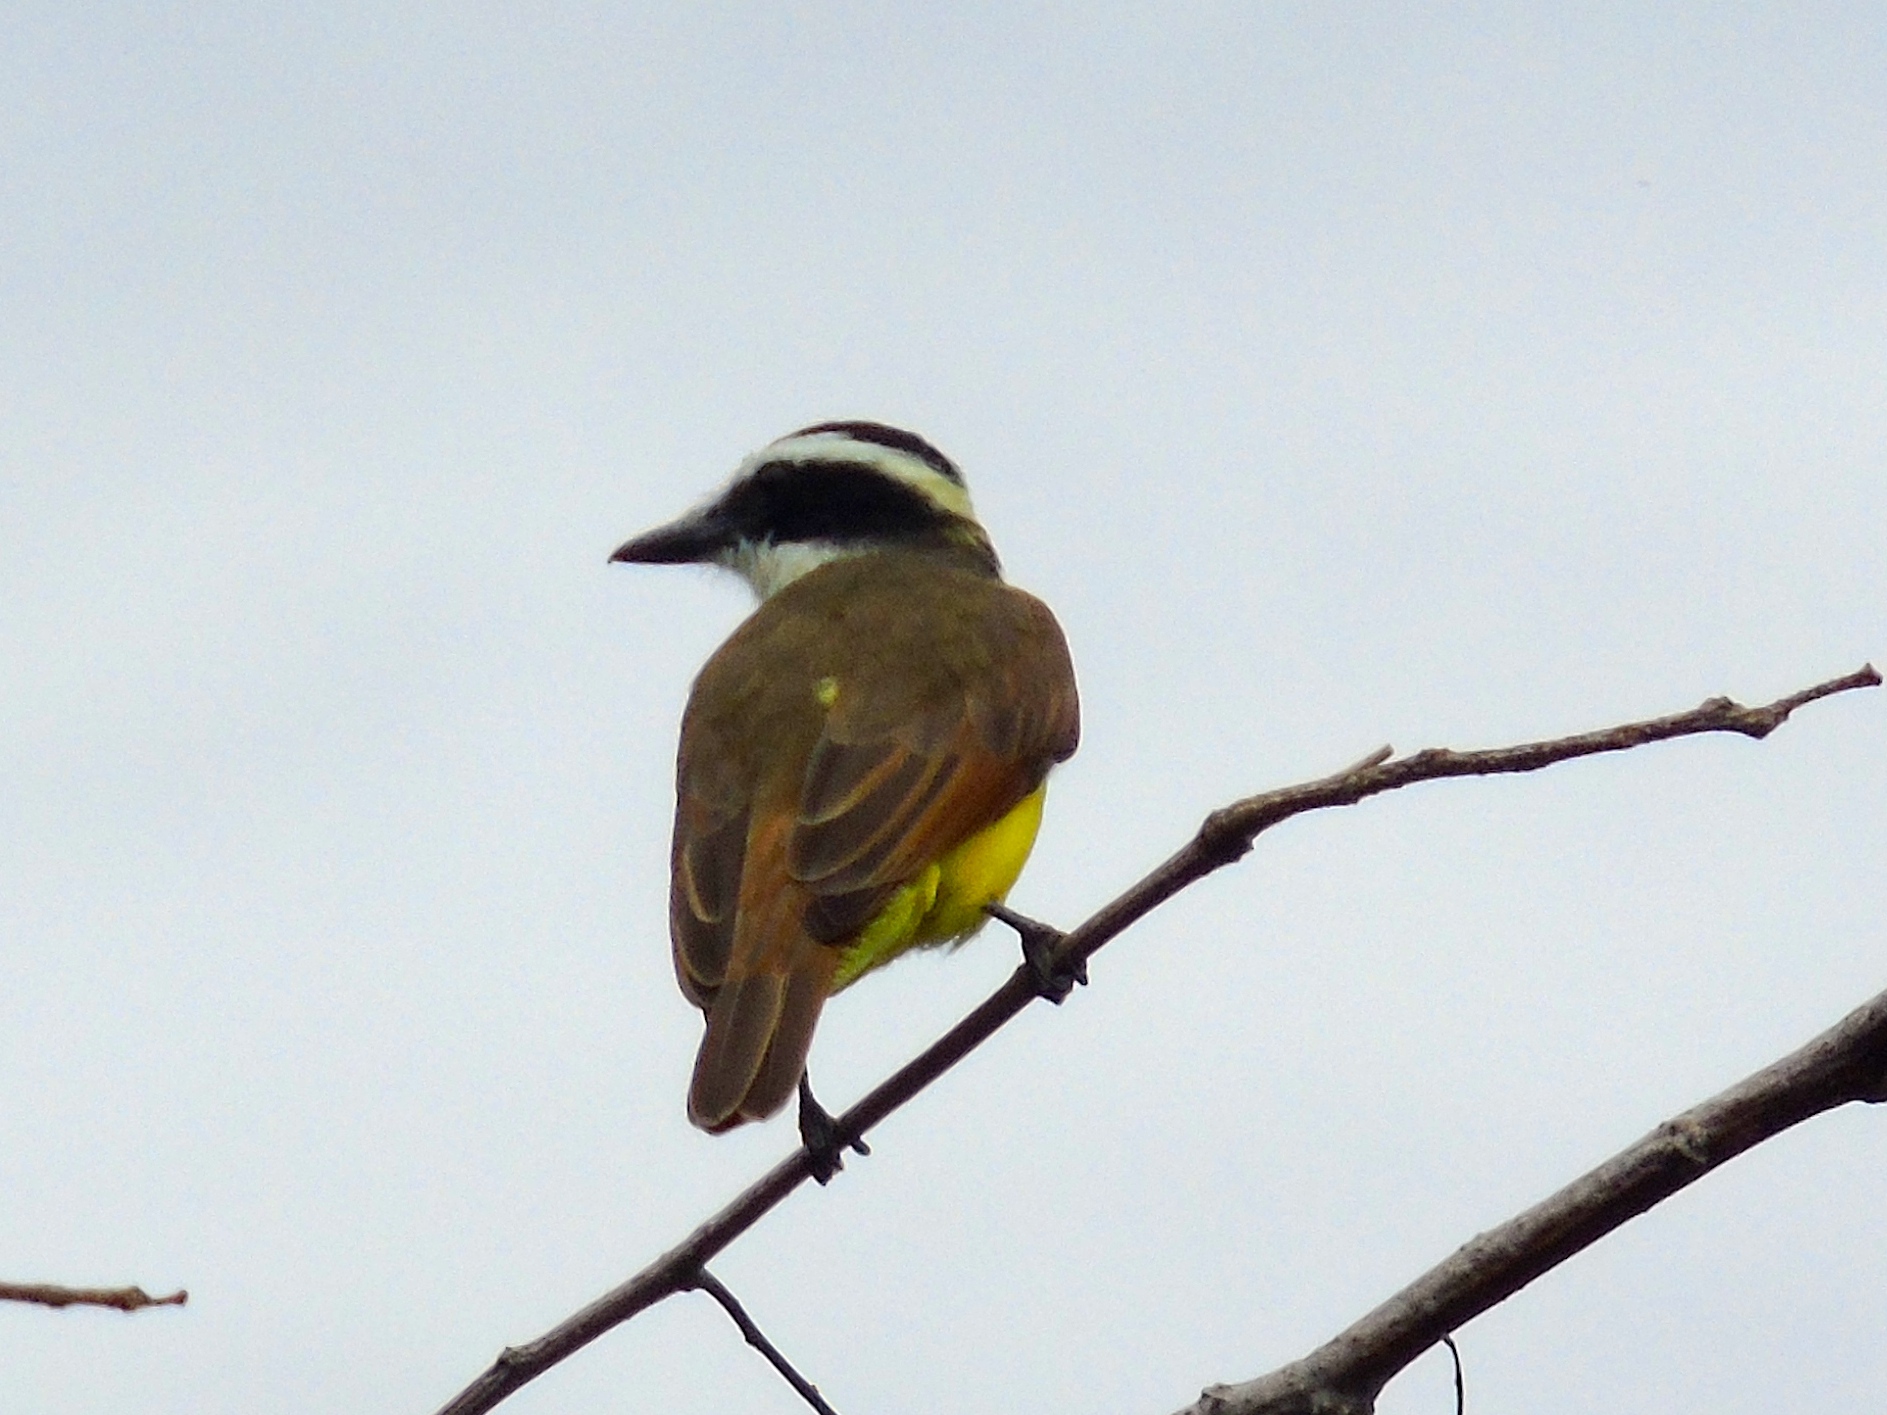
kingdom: Animalia
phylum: Chordata
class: Aves
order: Passeriformes
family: Tyrannidae
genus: Pitangus
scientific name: Pitangus sulphuratus
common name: Great kiskadee
